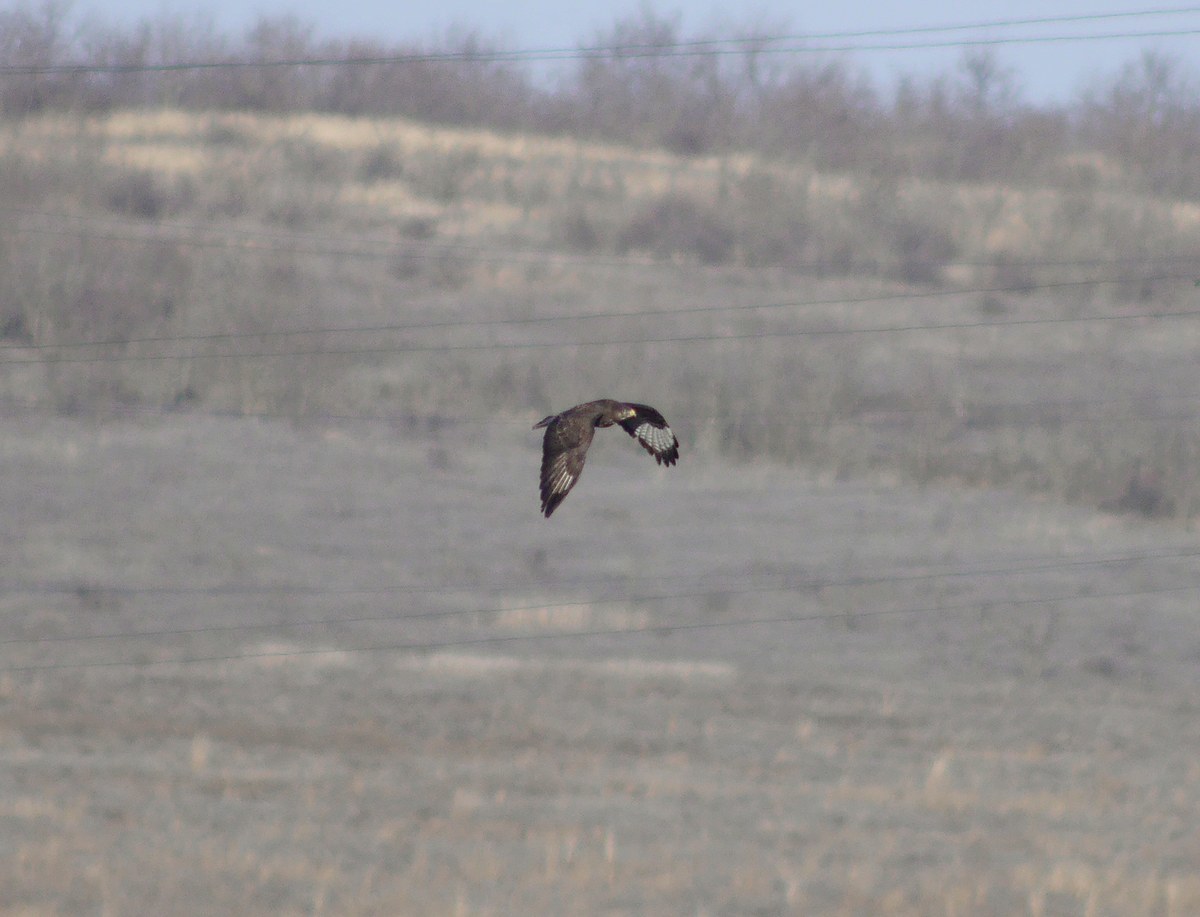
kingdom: Animalia
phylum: Chordata
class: Aves
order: Accipitriformes
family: Accipitridae
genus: Buteo
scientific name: Buteo buteo
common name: Common buzzard
